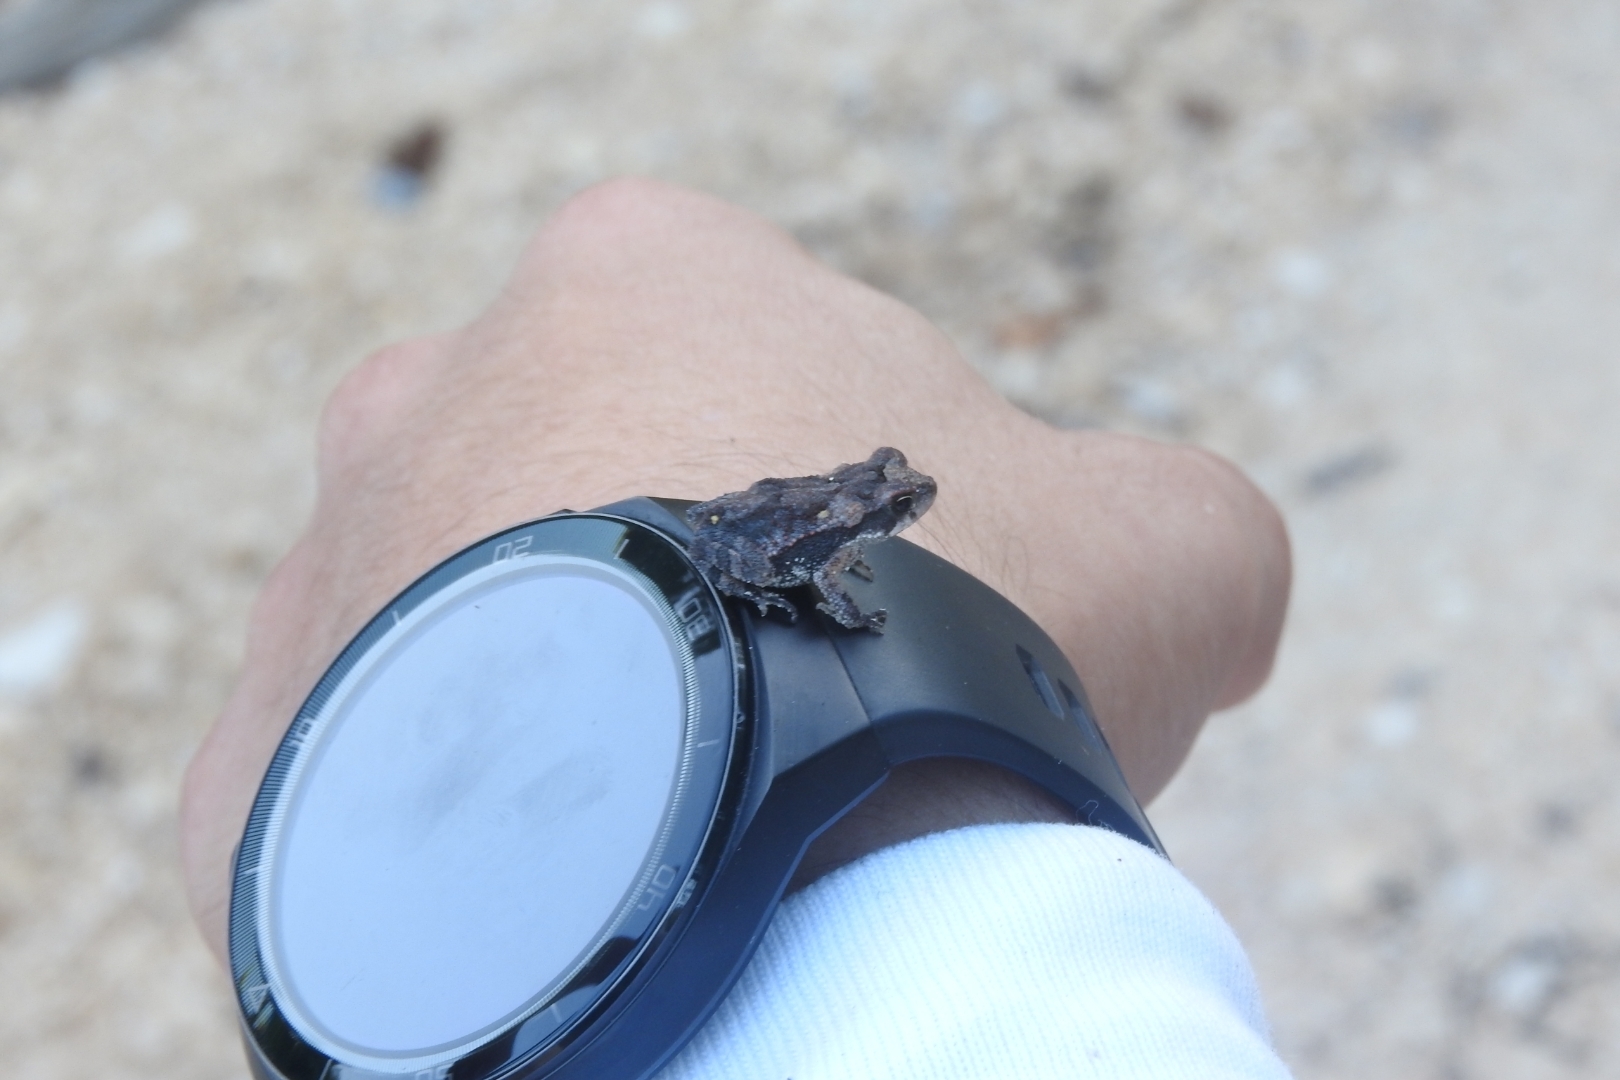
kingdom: Animalia
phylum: Chordata
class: Amphibia
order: Anura
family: Bufonidae
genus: Incilius
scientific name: Incilius valliceps
